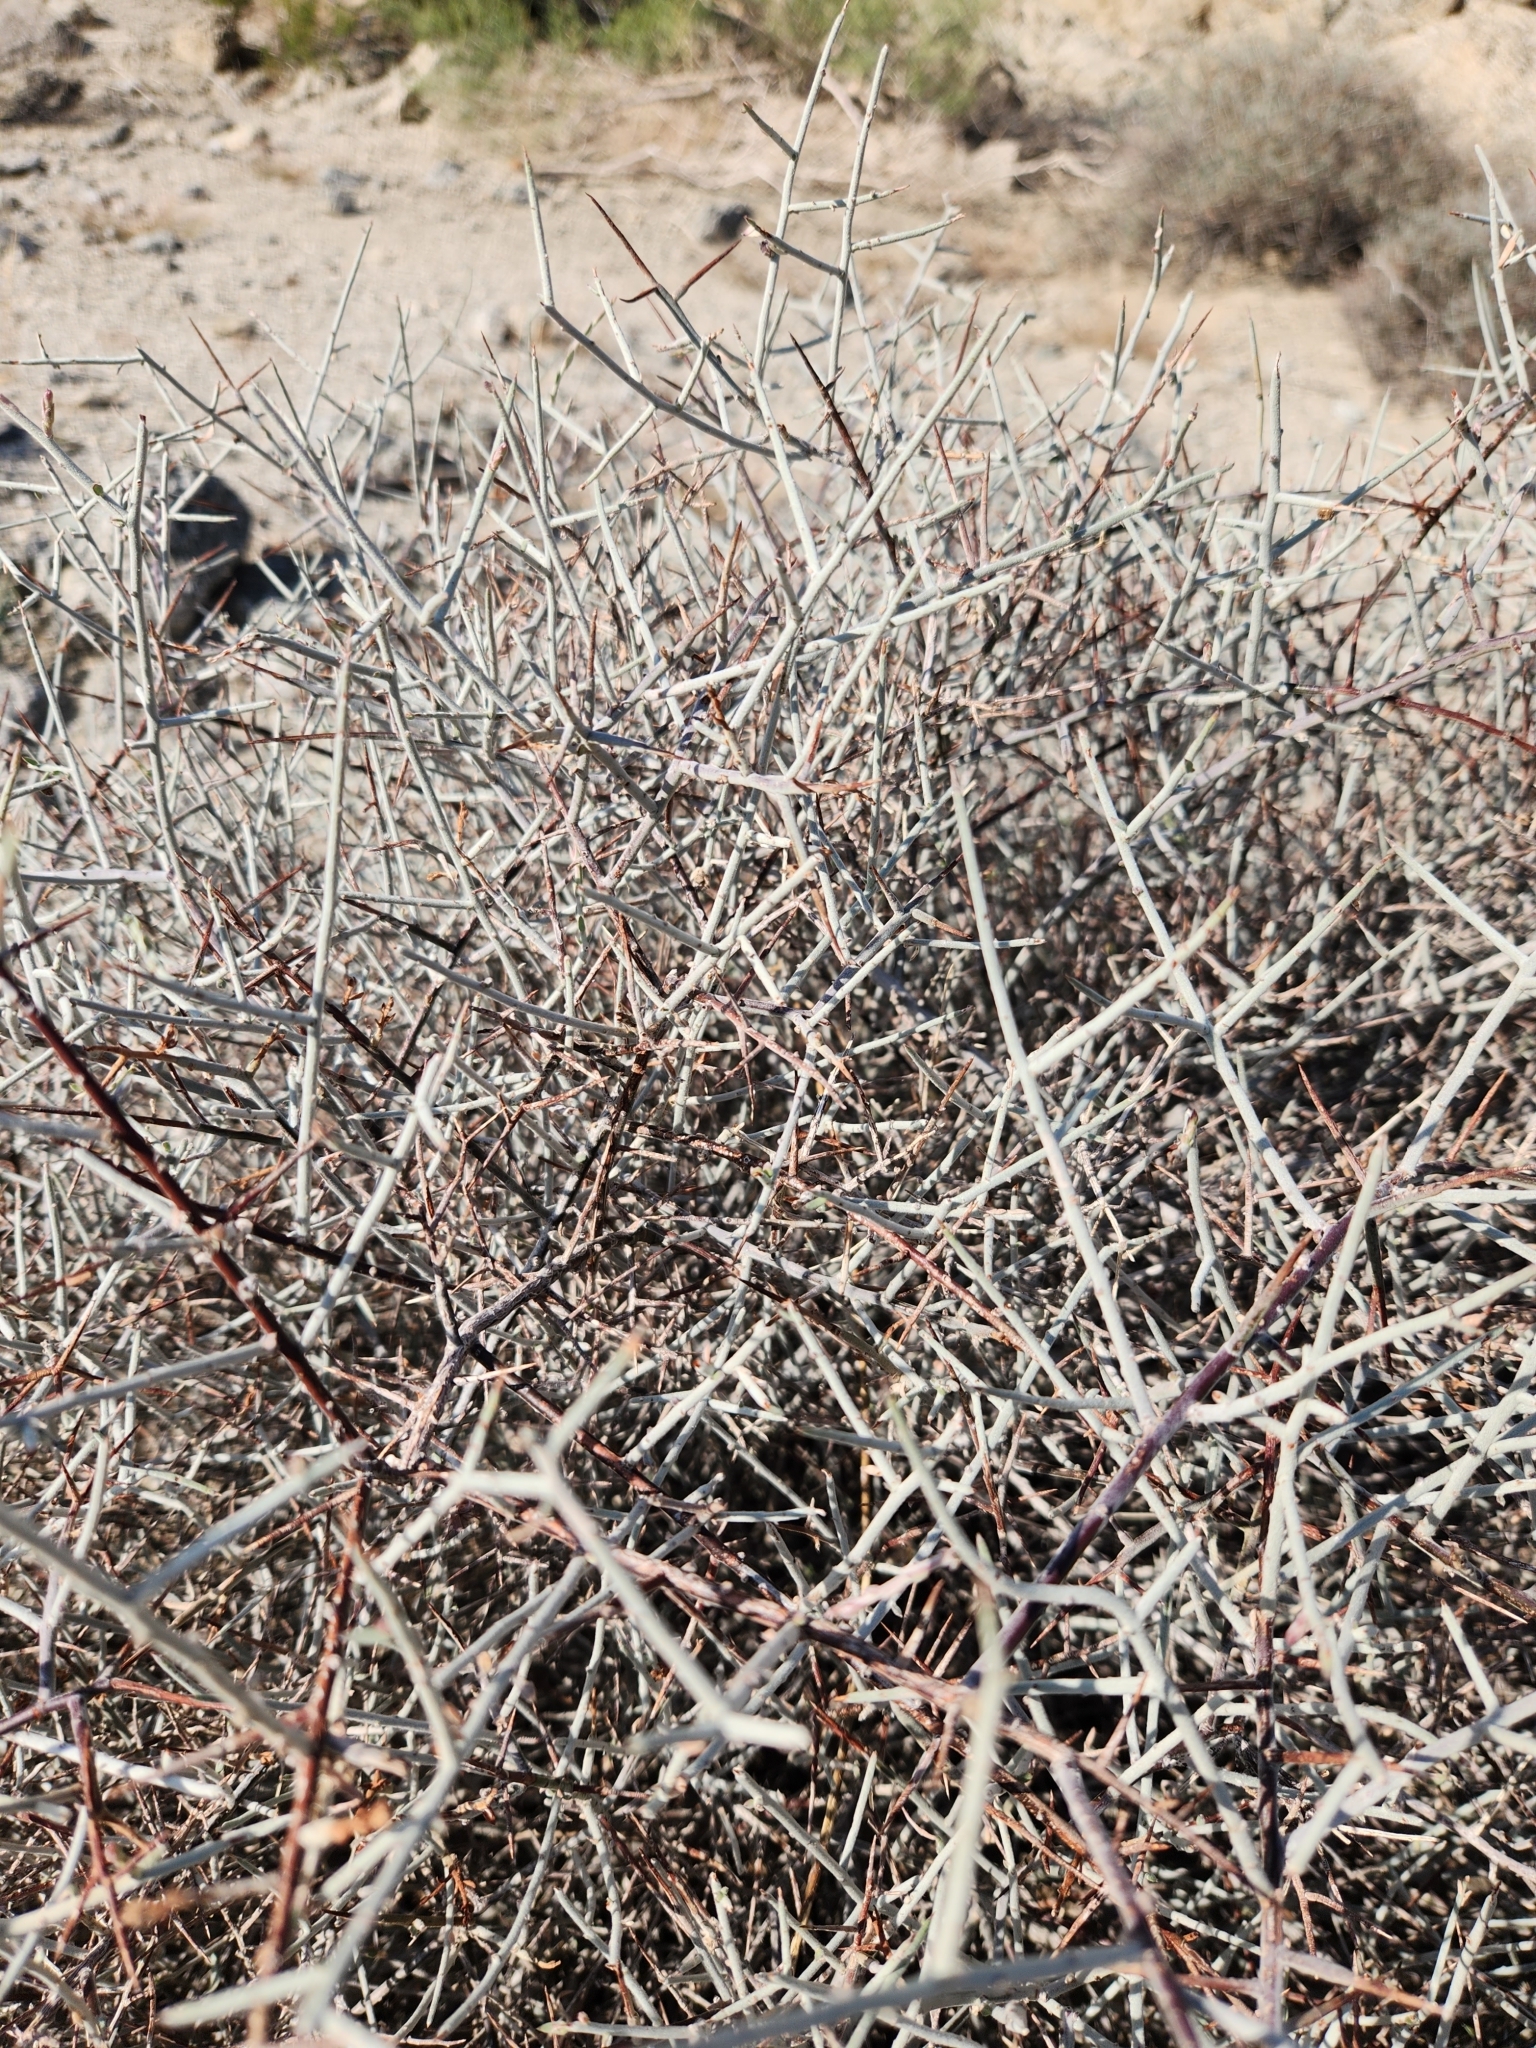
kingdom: Plantae
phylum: Tracheophyta
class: Magnoliopsida
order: Zygophyllales
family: Krameriaceae
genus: Krameria
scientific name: Krameria bicolor
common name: White ratany
